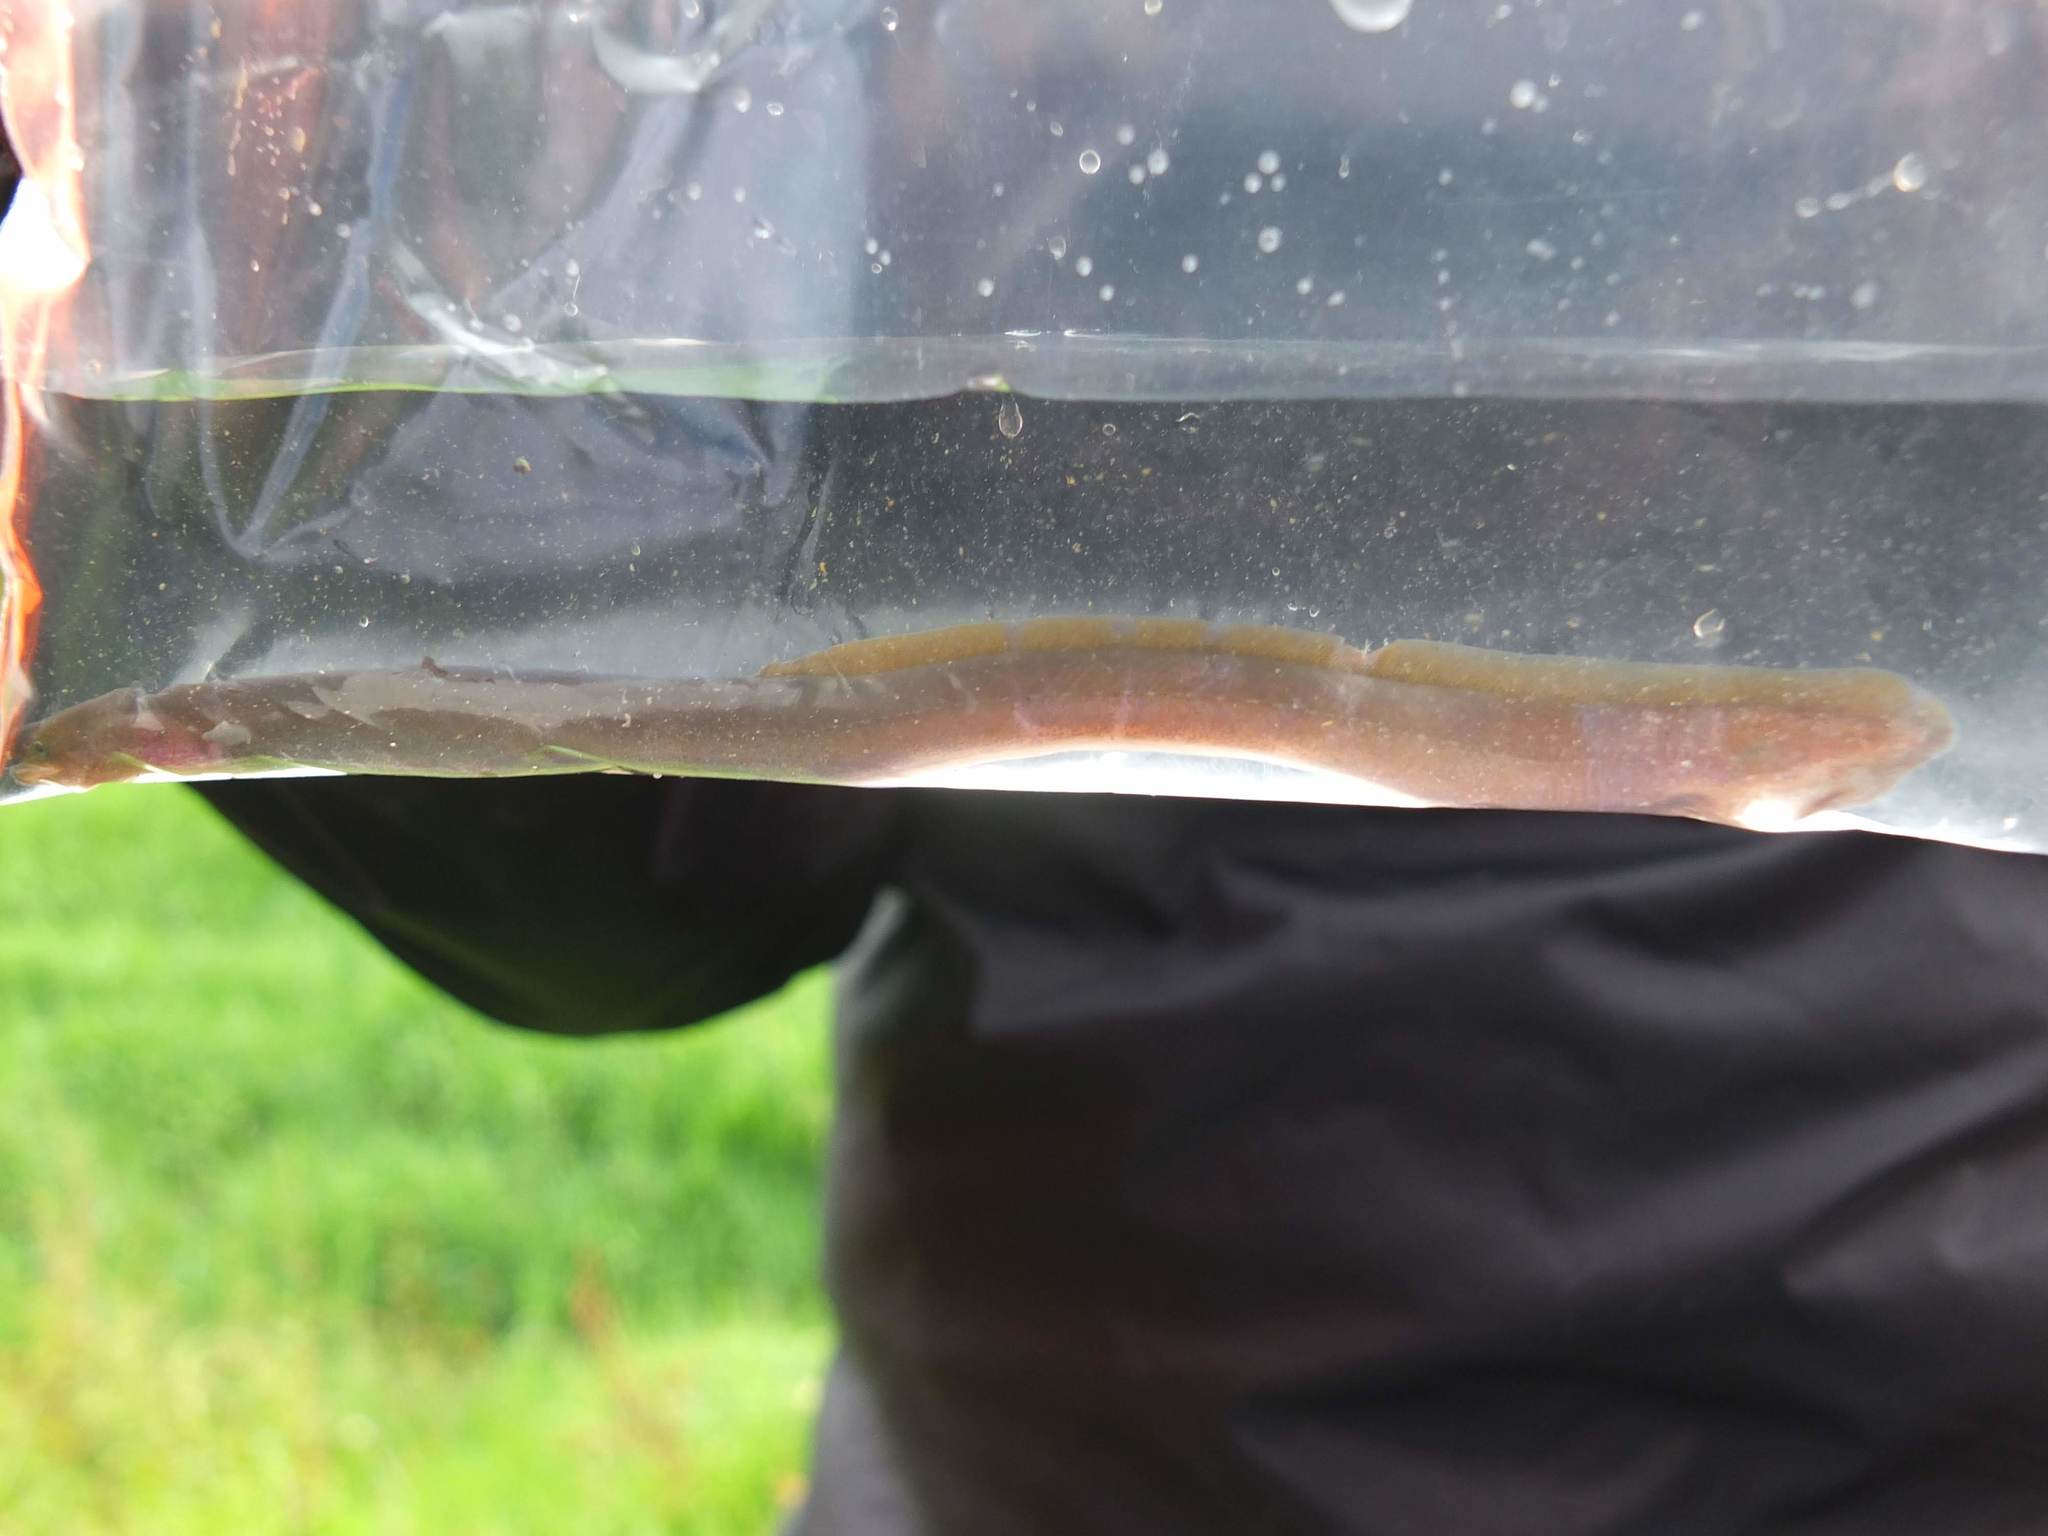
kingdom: Animalia
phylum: Chordata
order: Anguilliformes
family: Anguillidae
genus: Anguilla
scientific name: Anguilla australis
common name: Shortfin eel
